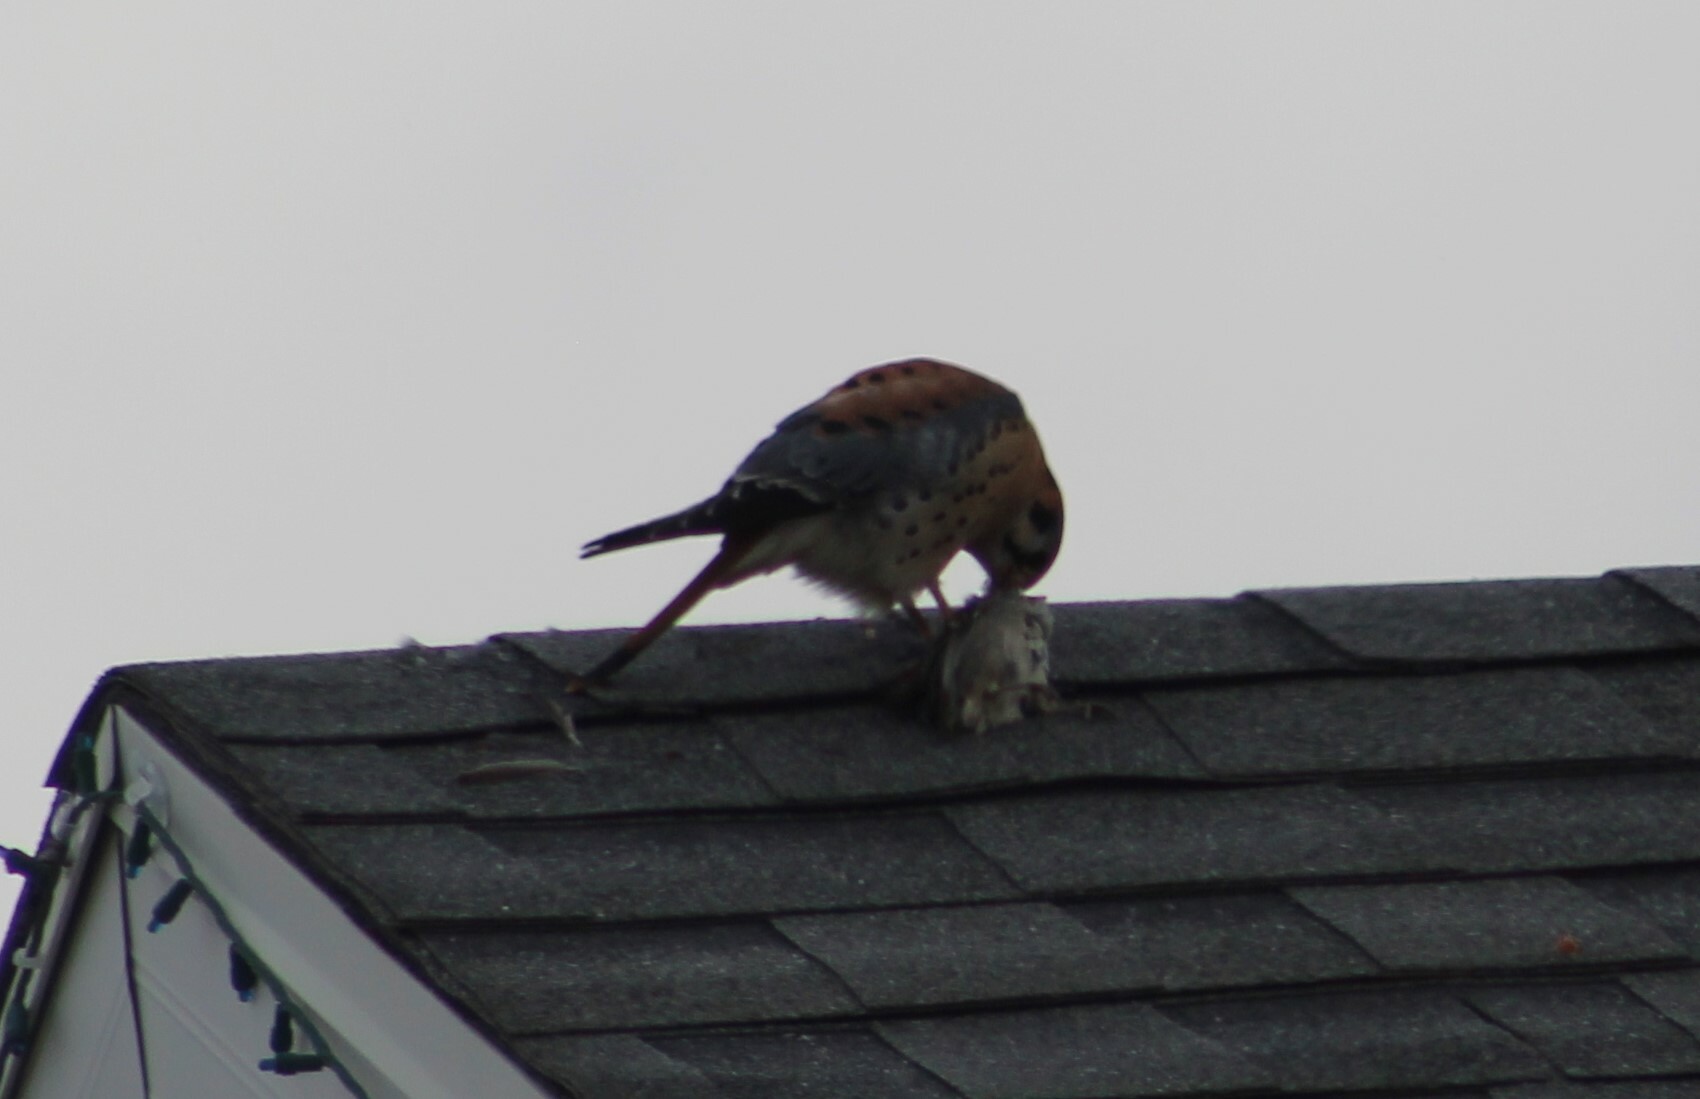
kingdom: Animalia
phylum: Chordata
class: Aves
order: Falconiformes
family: Falconidae
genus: Falco
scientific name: Falco sparverius
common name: American kestrel
